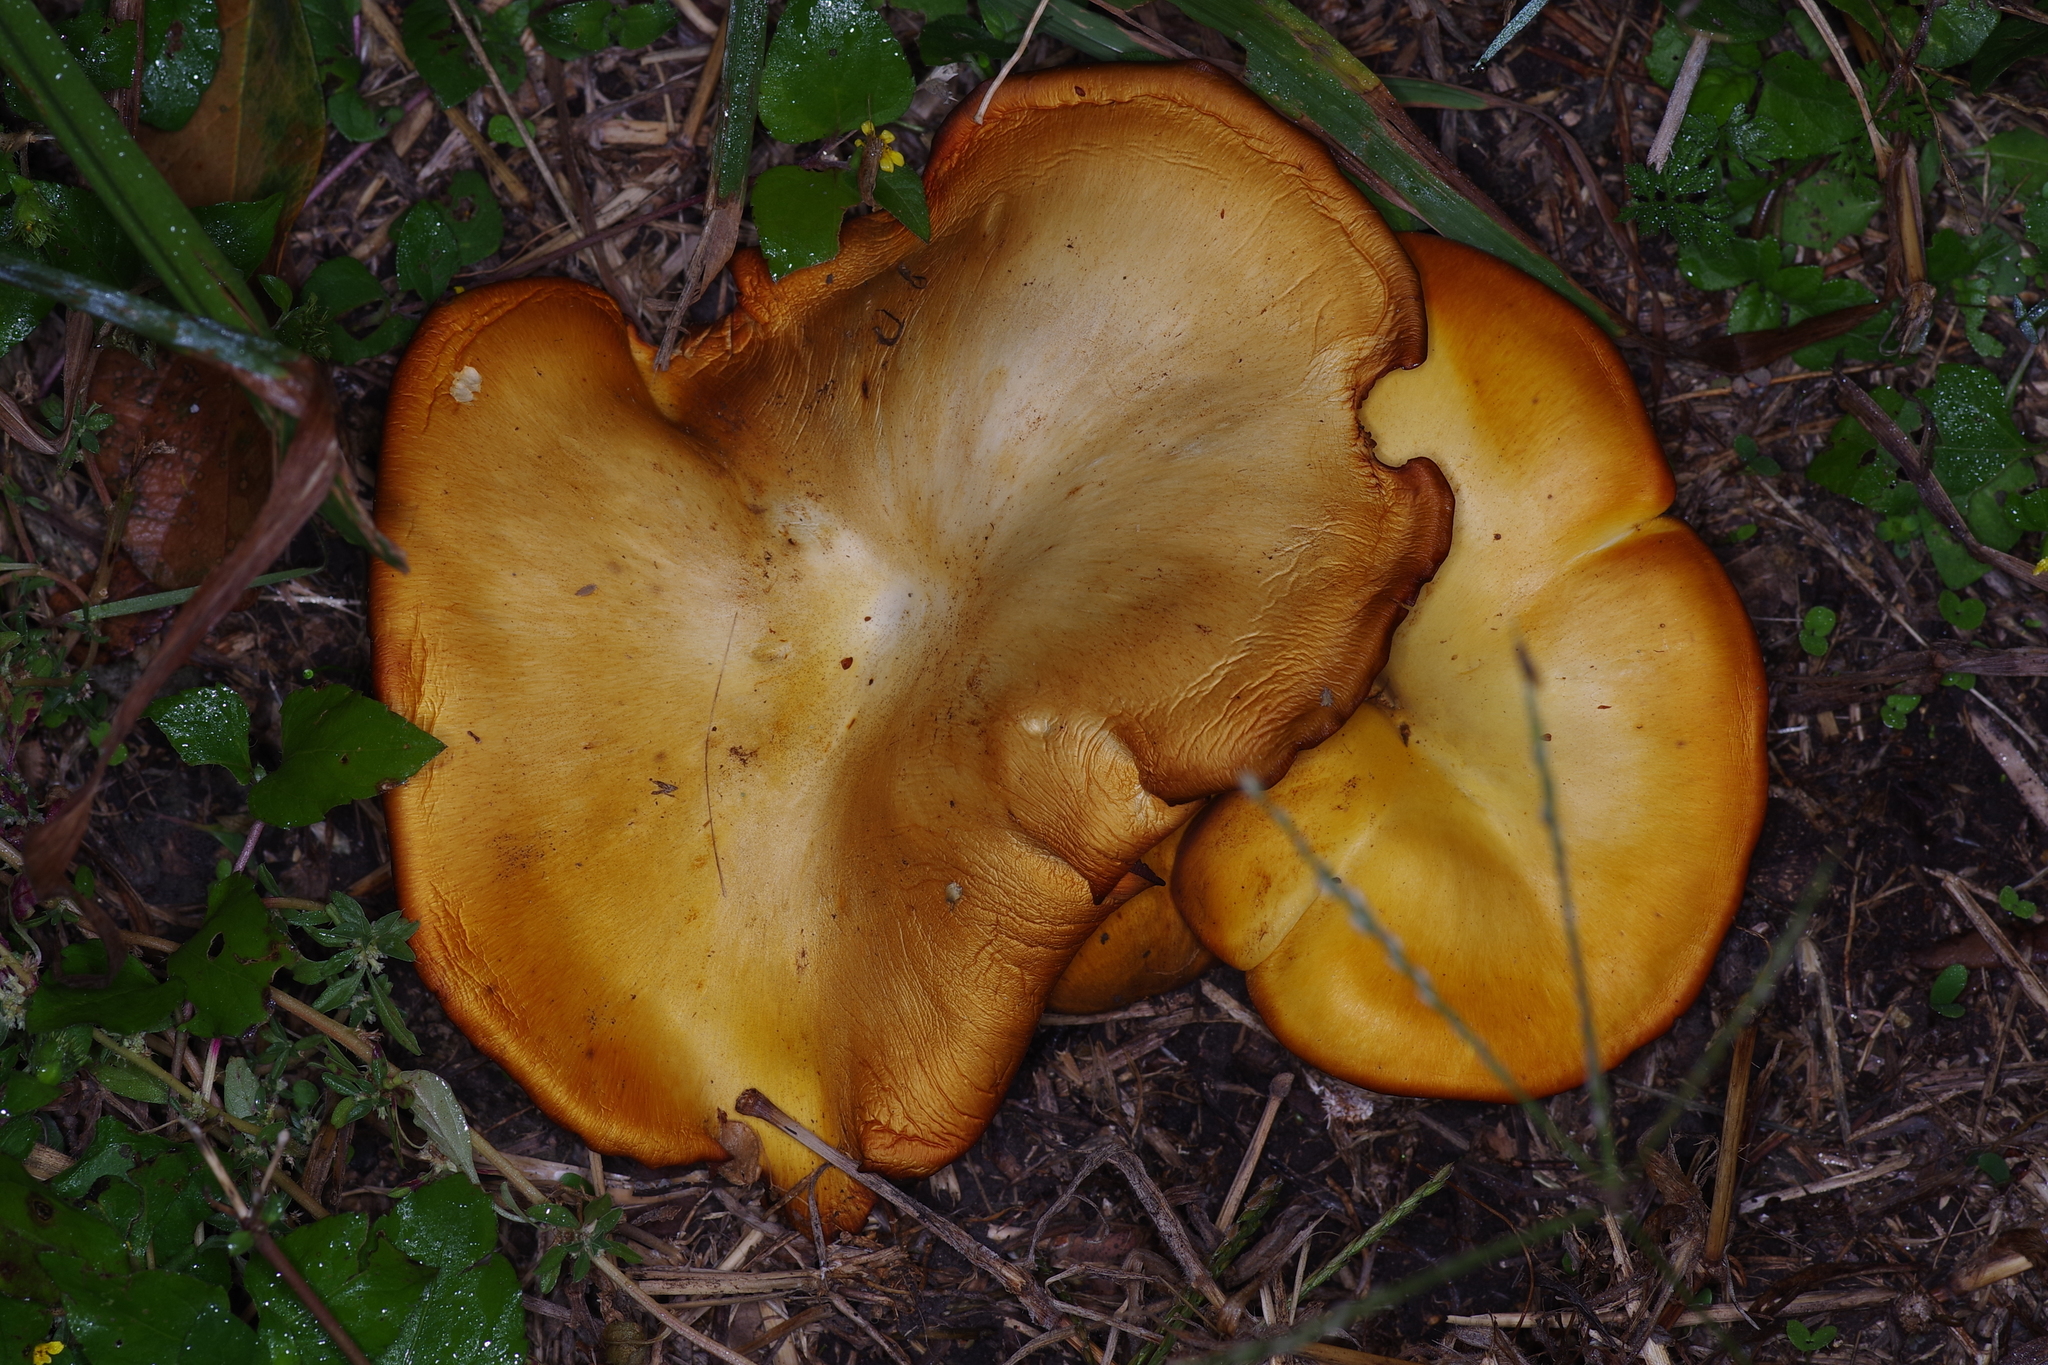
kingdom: Fungi
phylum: Basidiomycota
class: Agaricomycetes
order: Agaricales
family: Omphalotaceae
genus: Omphalotus
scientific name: Omphalotus subilludens
